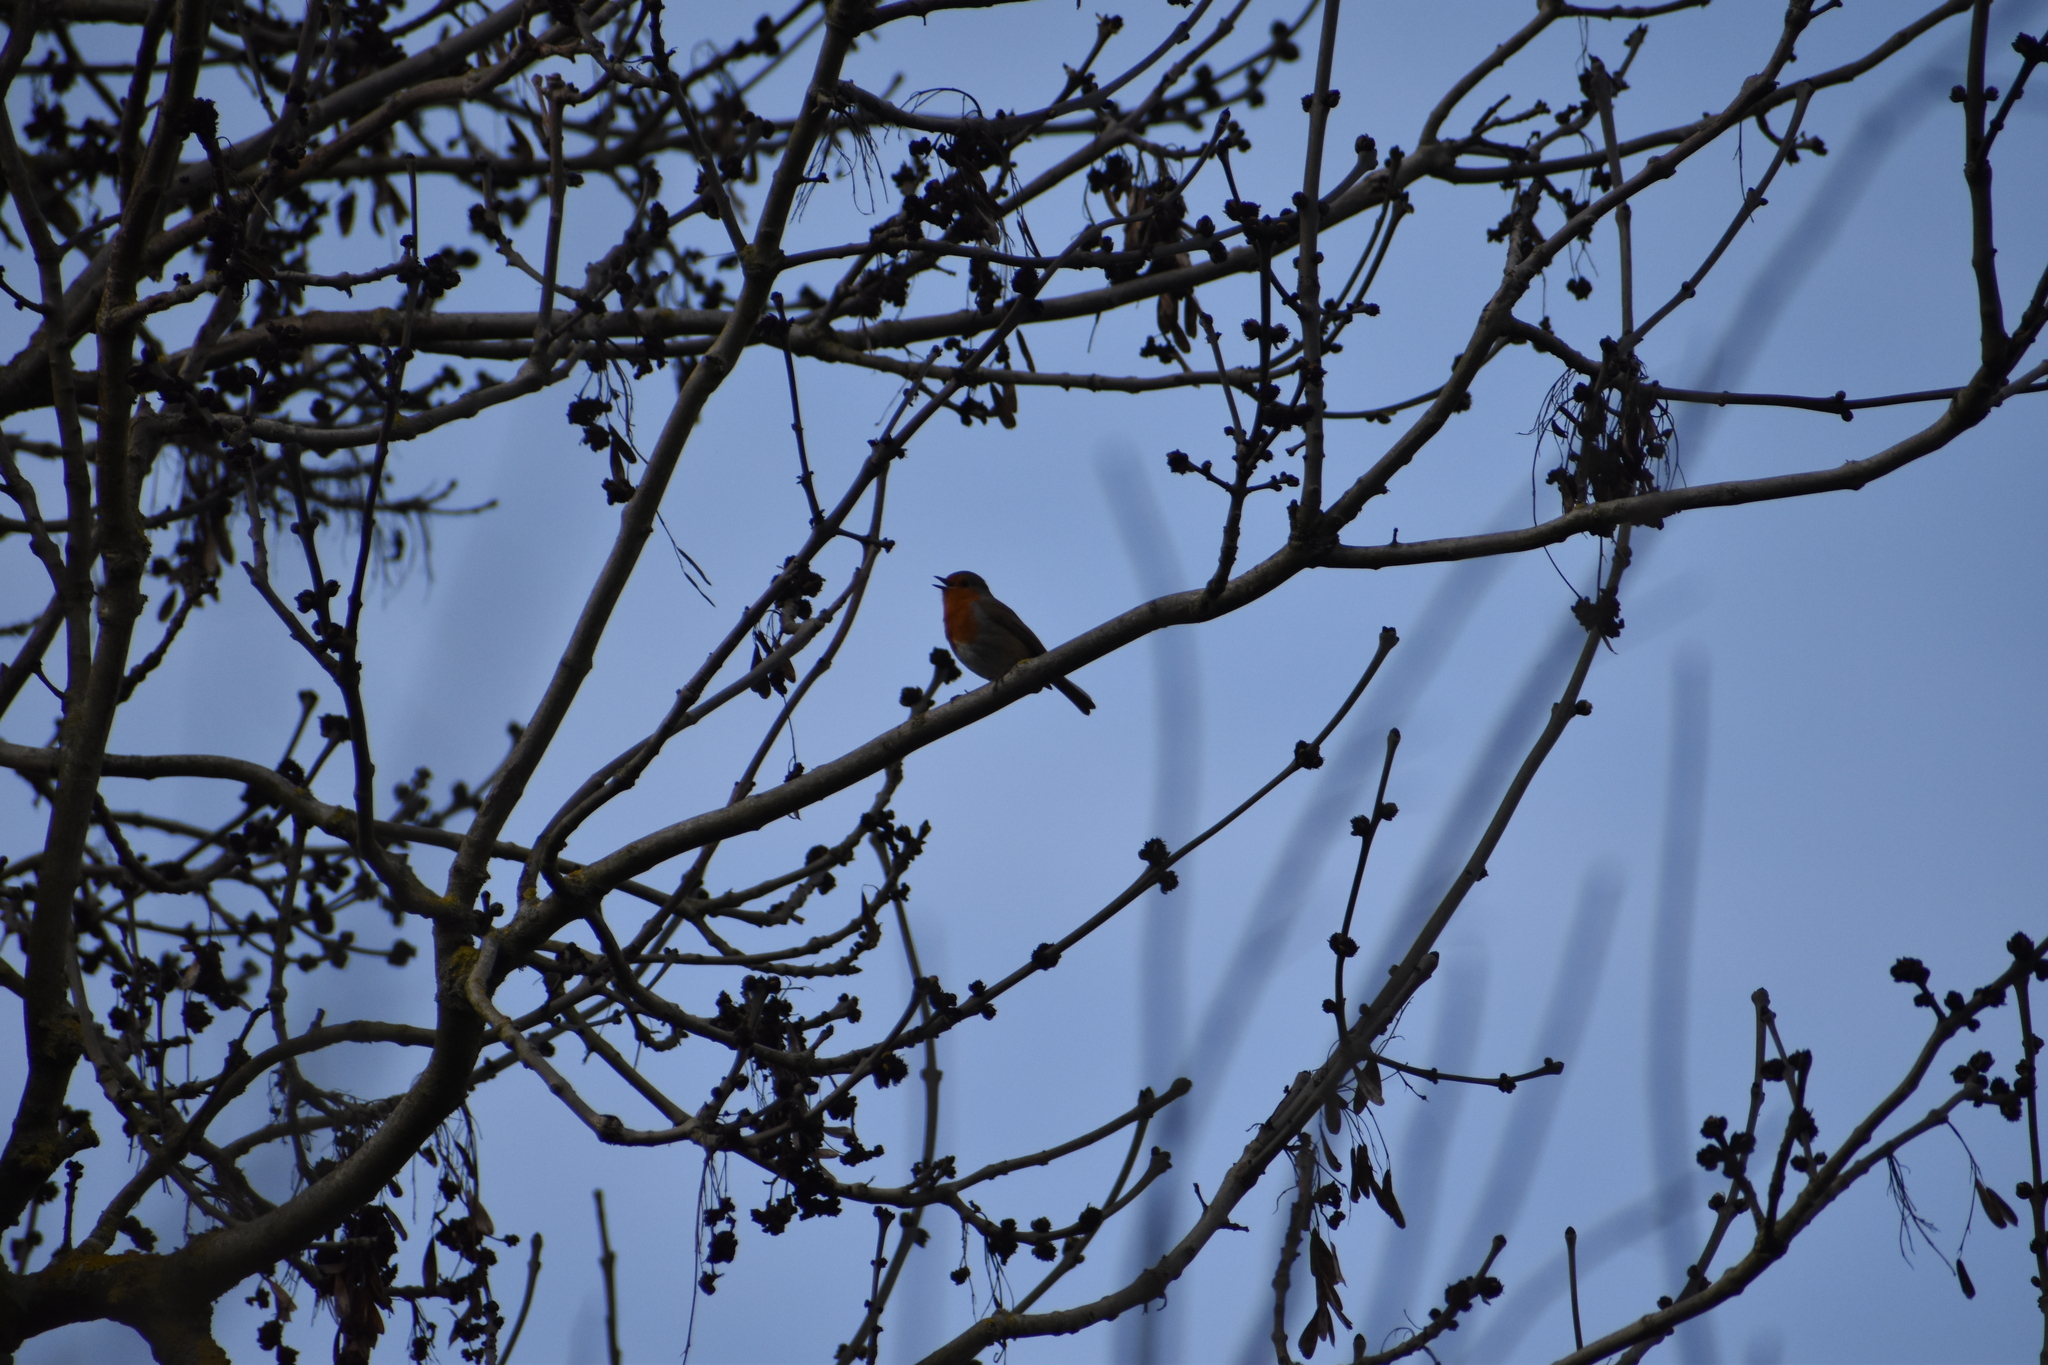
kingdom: Animalia
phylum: Chordata
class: Aves
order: Passeriformes
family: Muscicapidae
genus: Erithacus
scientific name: Erithacus rubecula
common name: European robin
